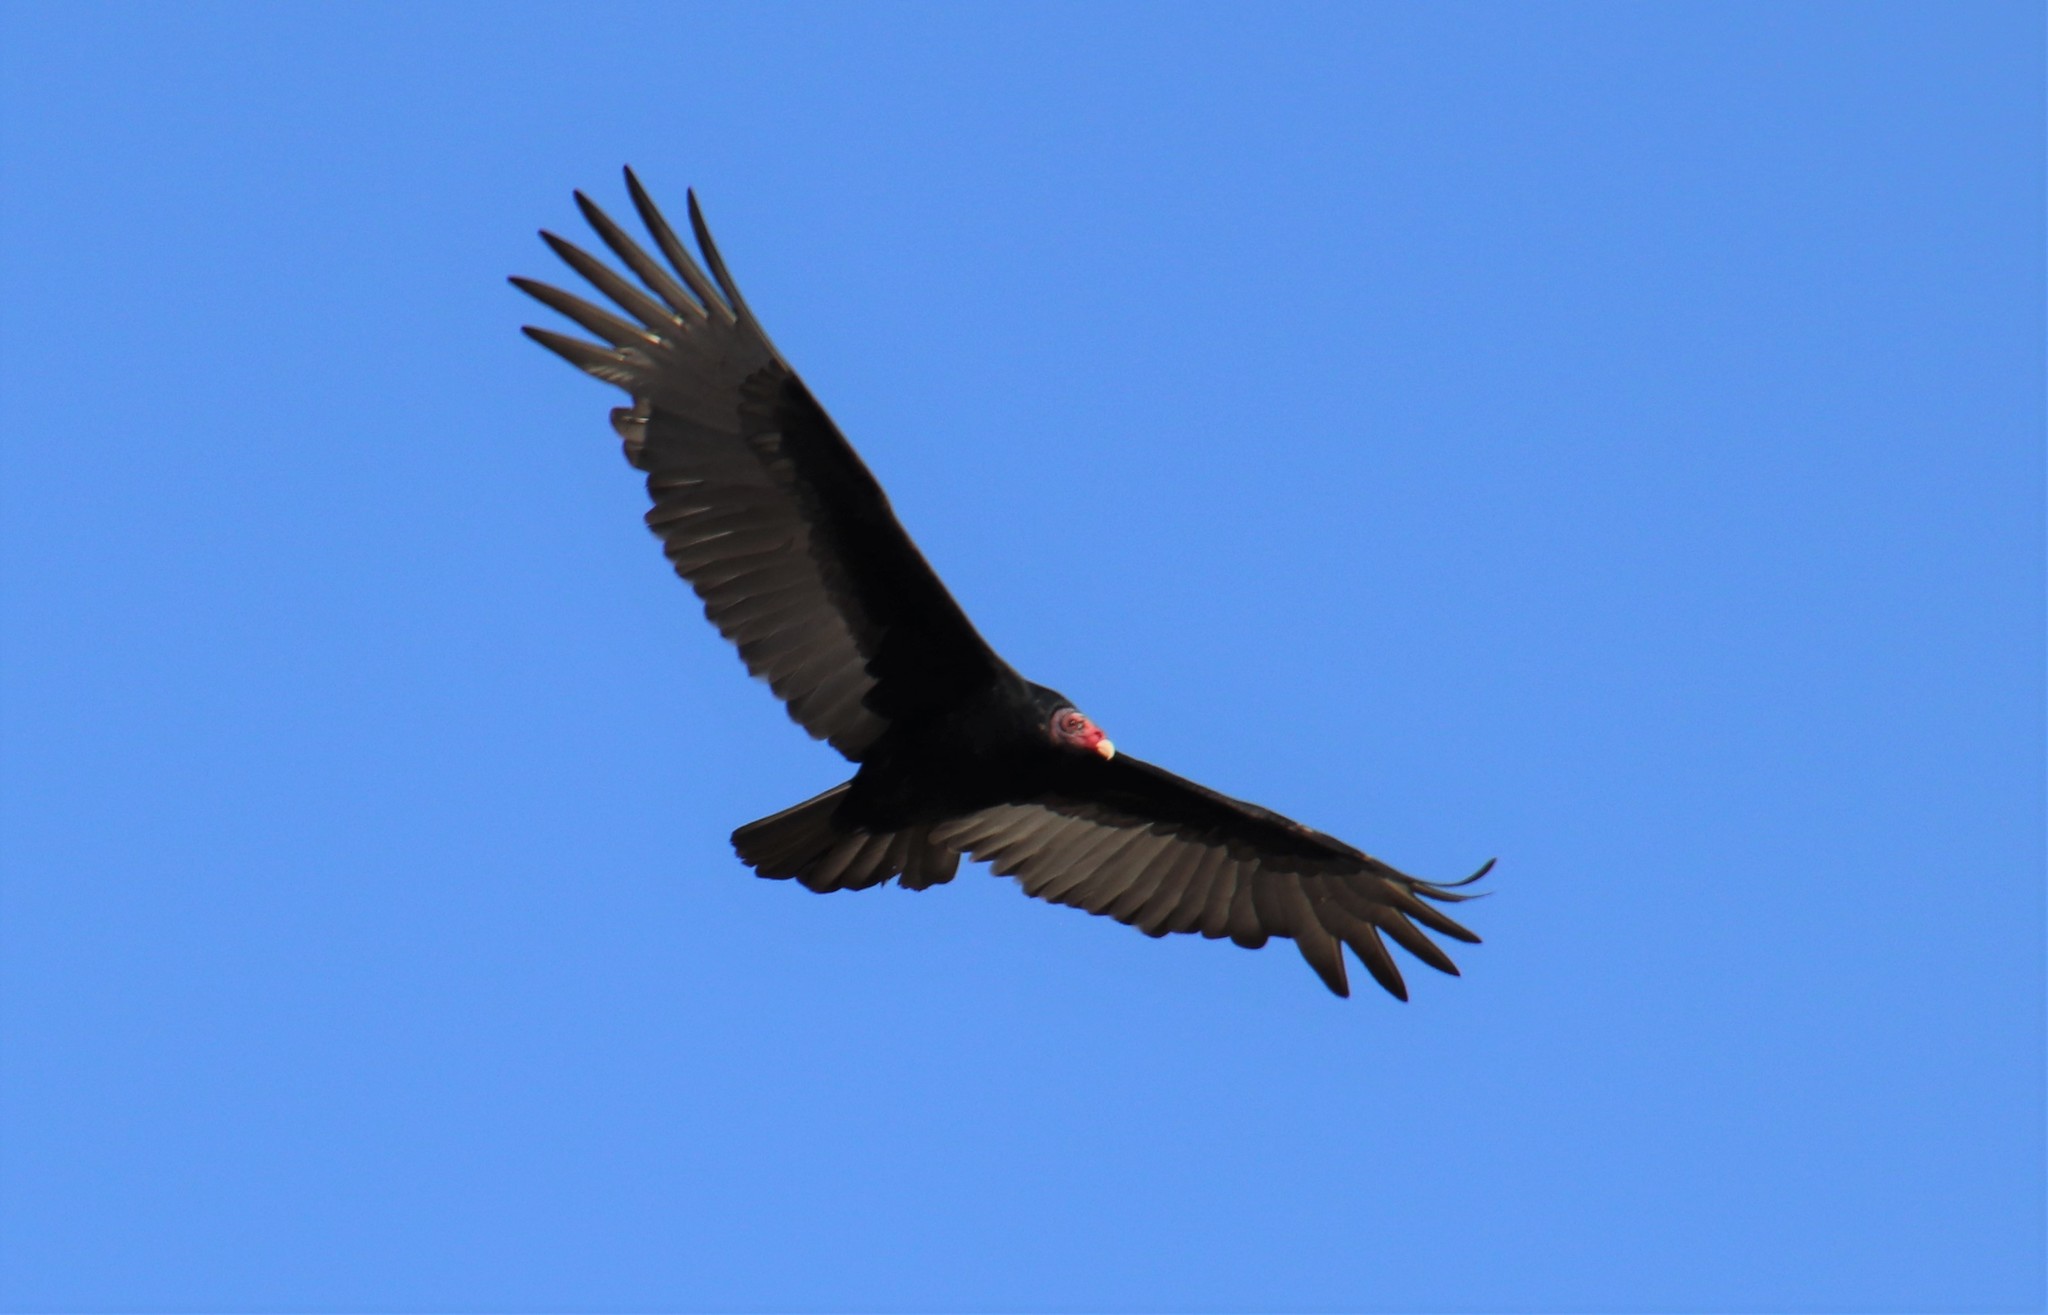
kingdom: Animalia
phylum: Chordata
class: Aves
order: Accipitriformes
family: Cathartidae
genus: Cathartes
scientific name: Cathartes aura
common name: Turkey vulture
